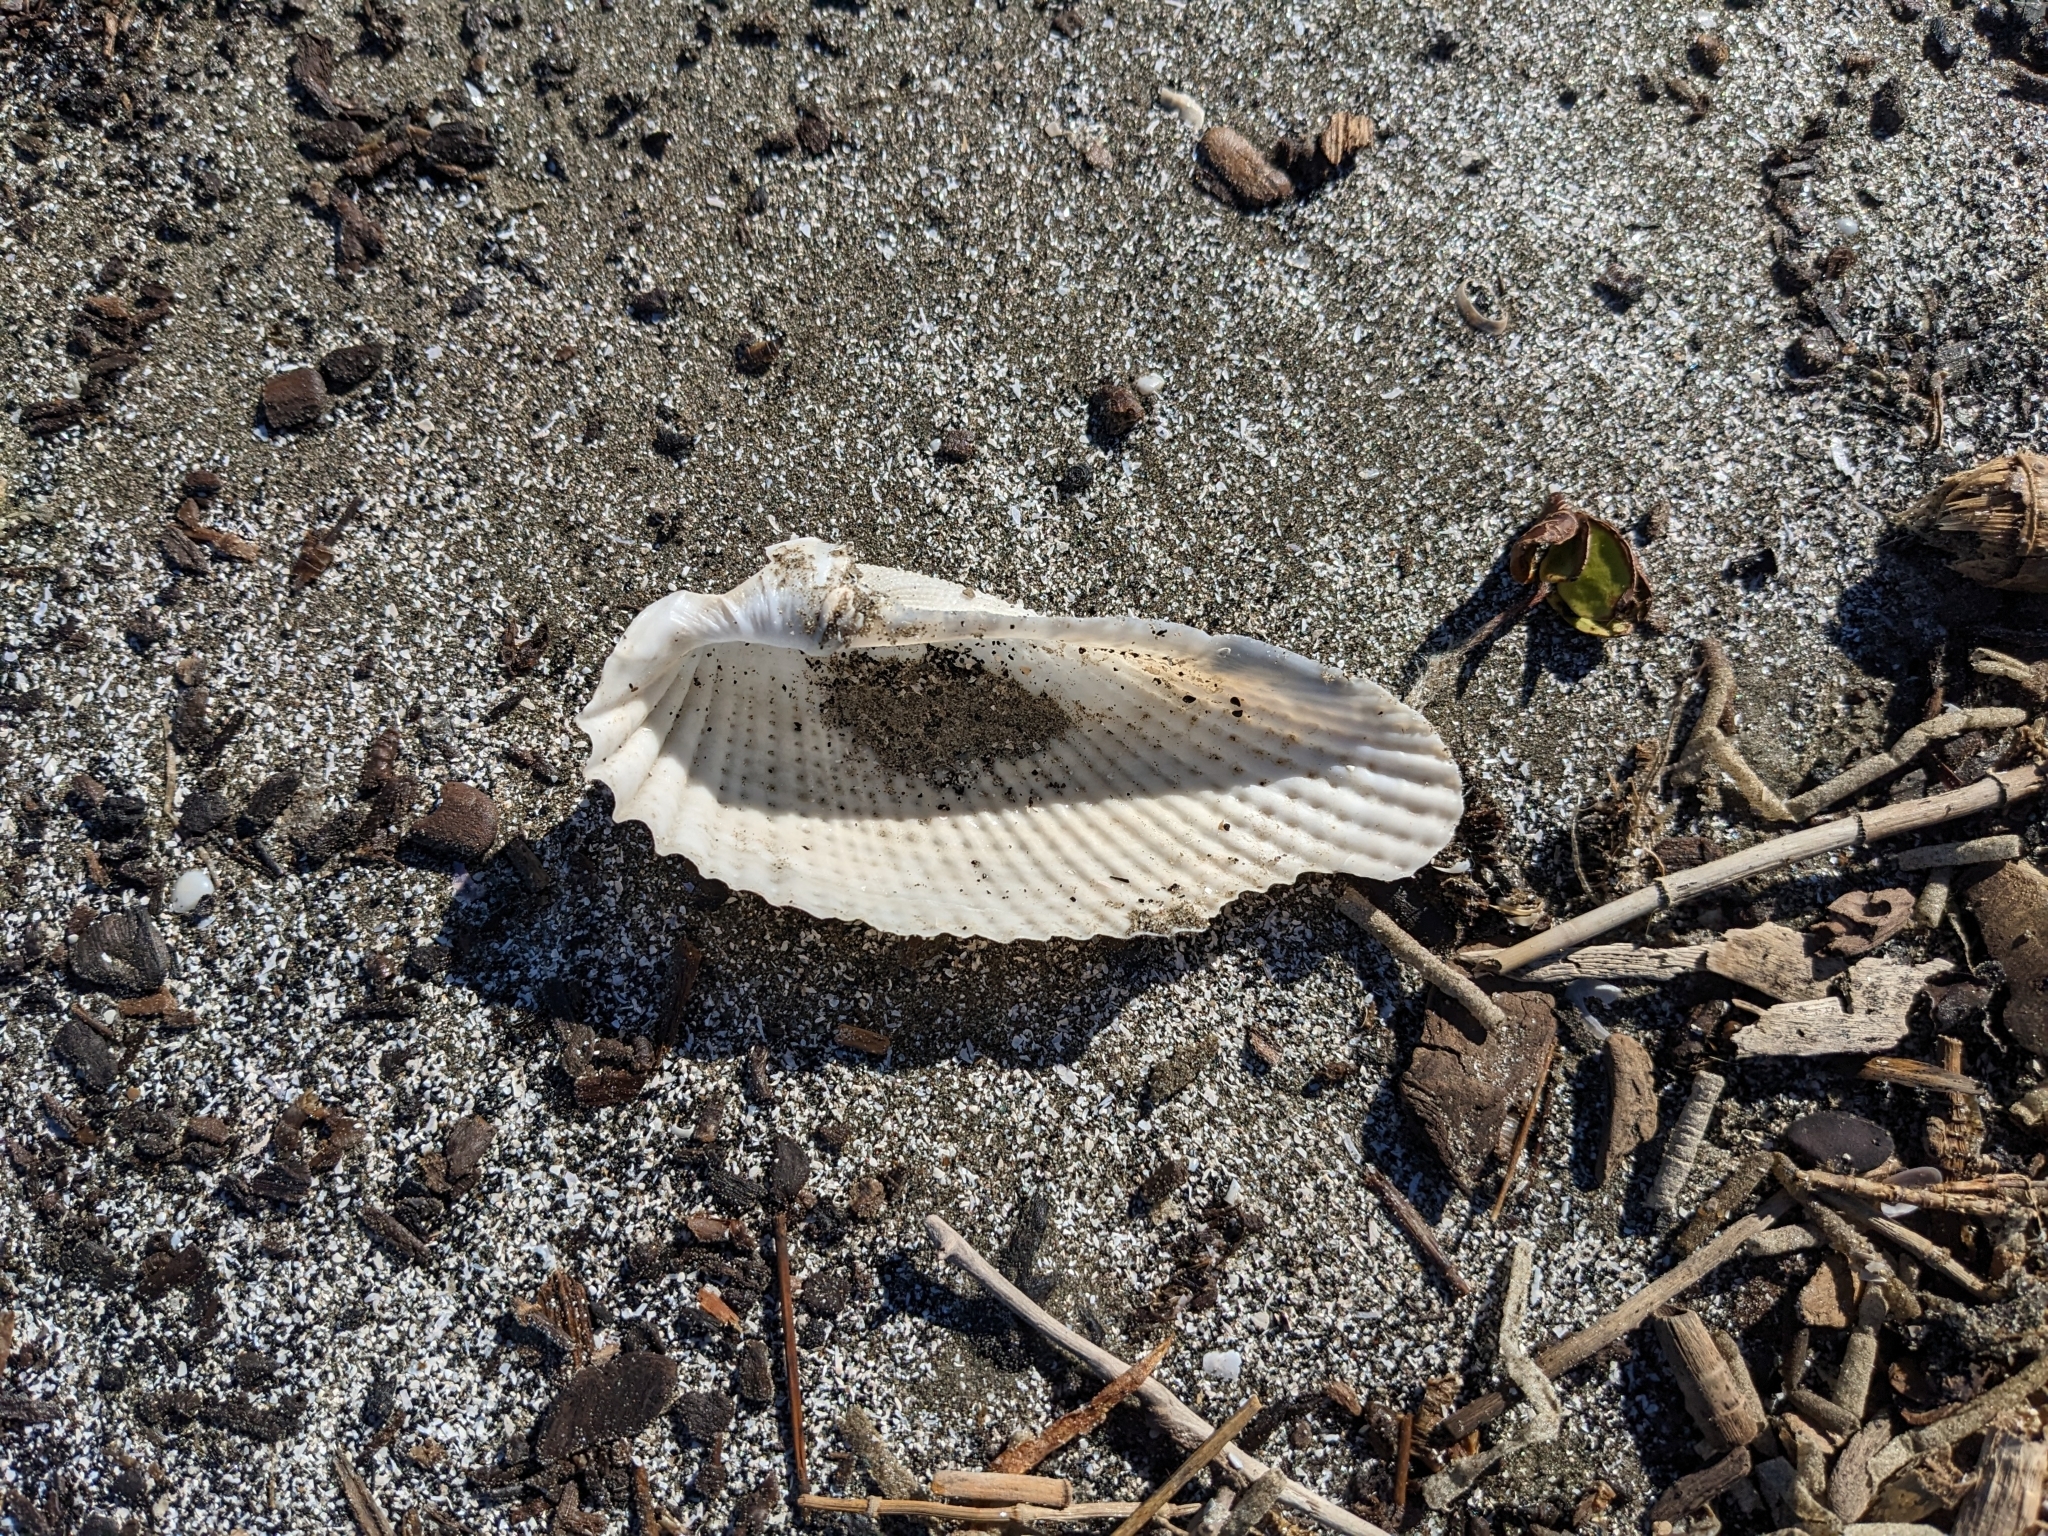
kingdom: Animalia
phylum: Mollusca
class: Bivalvia
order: Myida
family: Pholadidae
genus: Cyrtopleura
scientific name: Cyrtopleura costata
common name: Angel wing
